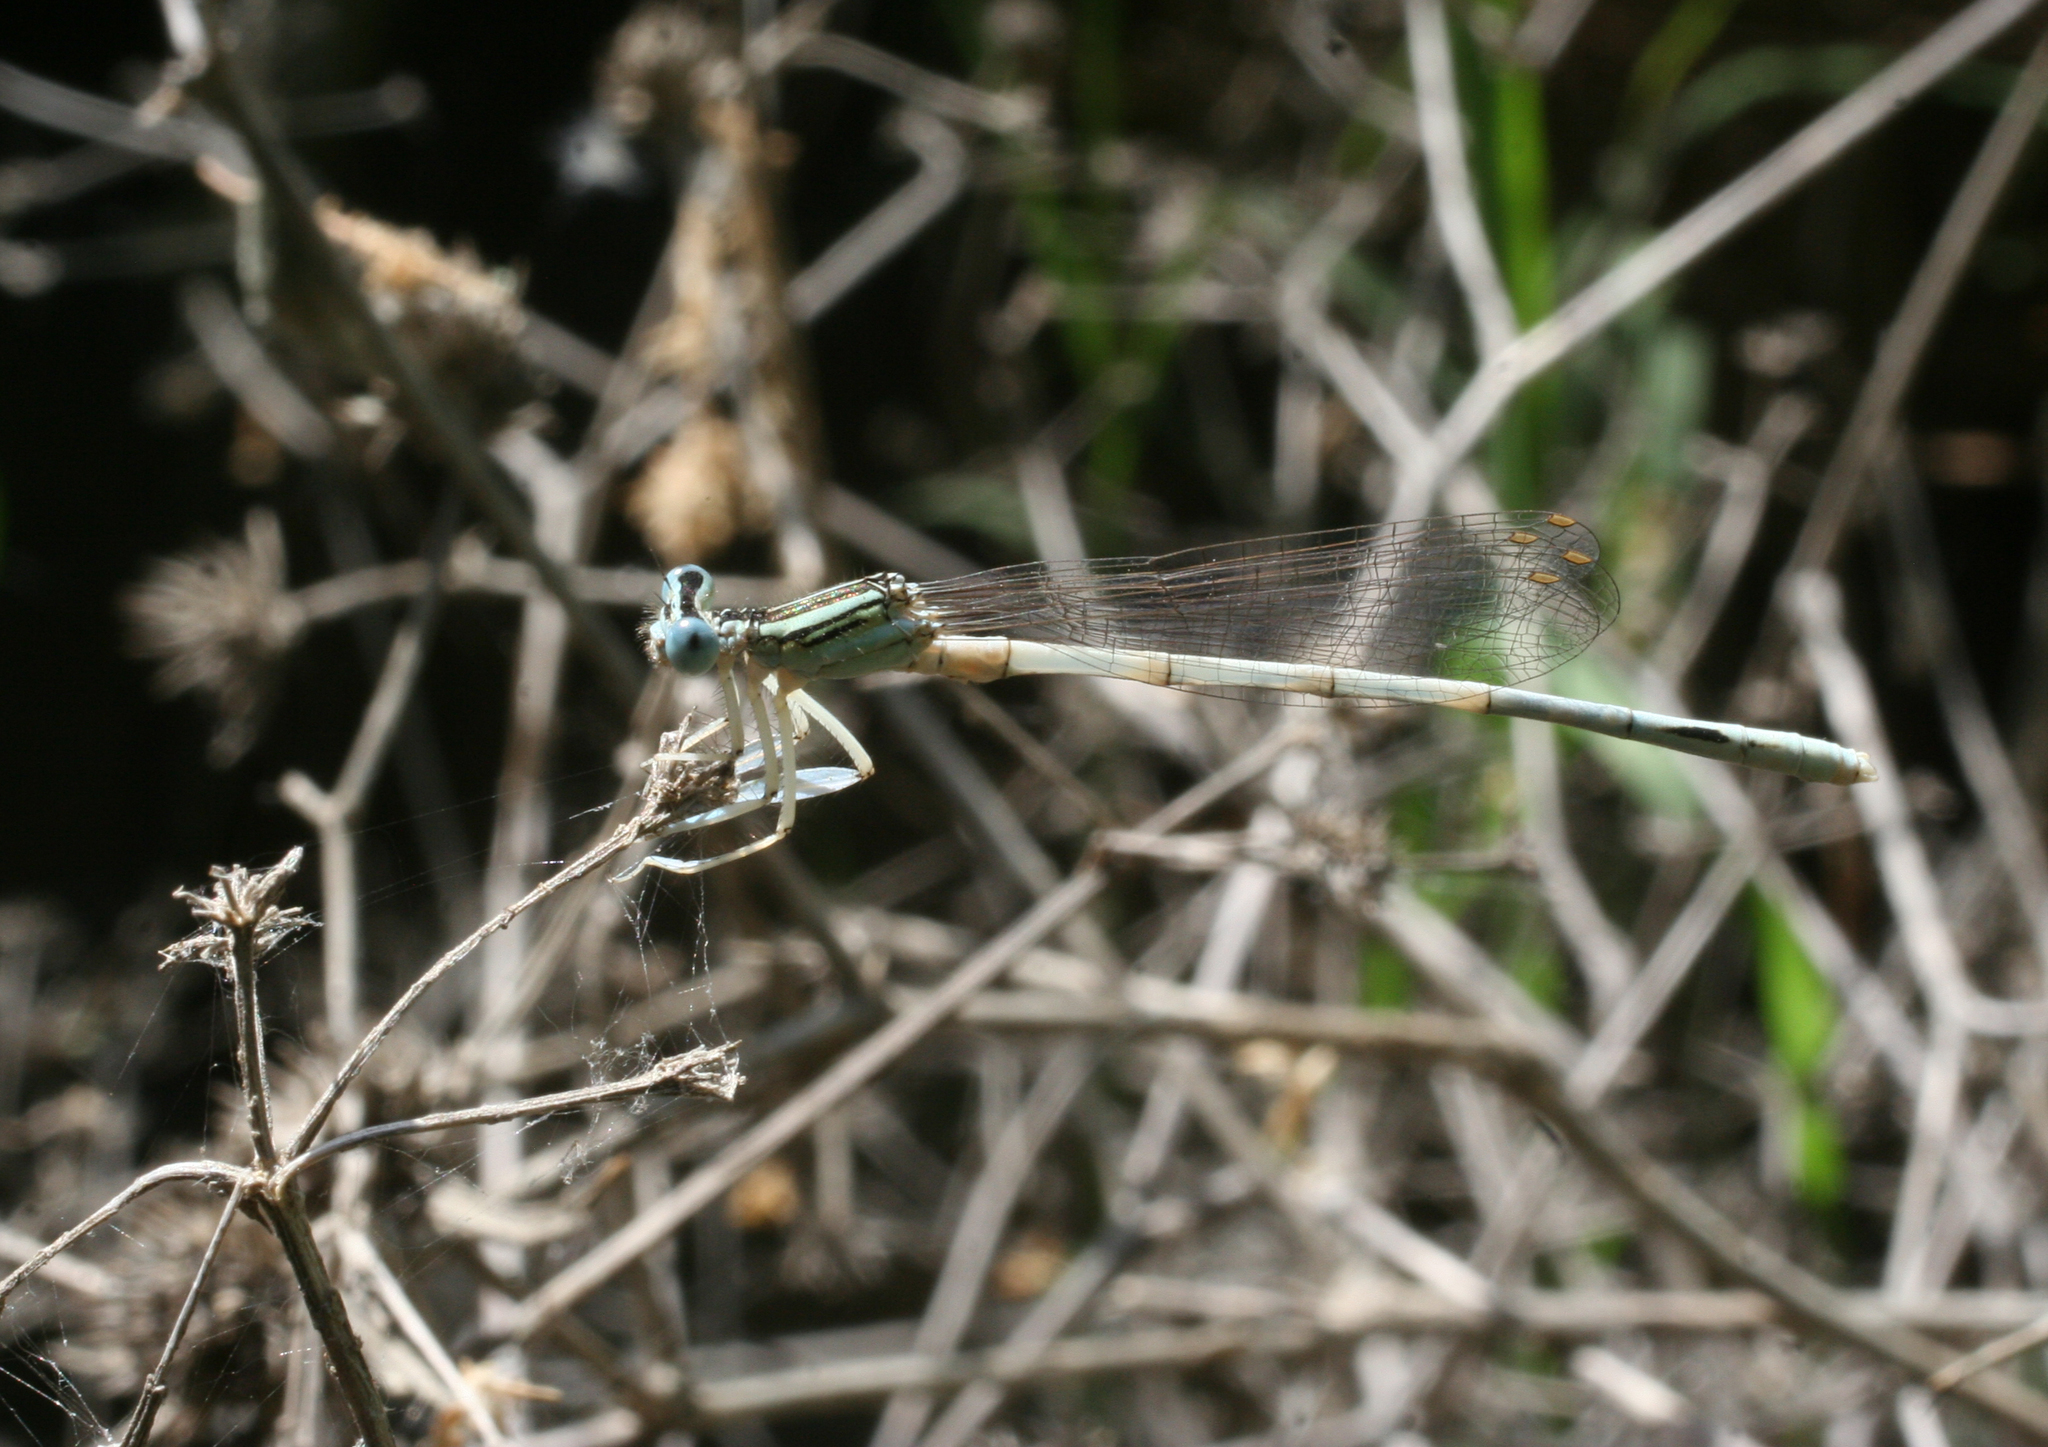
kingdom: Animalia
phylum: Arthropoda
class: Insecta
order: Odonata
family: Platycnemididae
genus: Platycnemis
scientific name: Platycnemis dealbata
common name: Ivory featherleg
